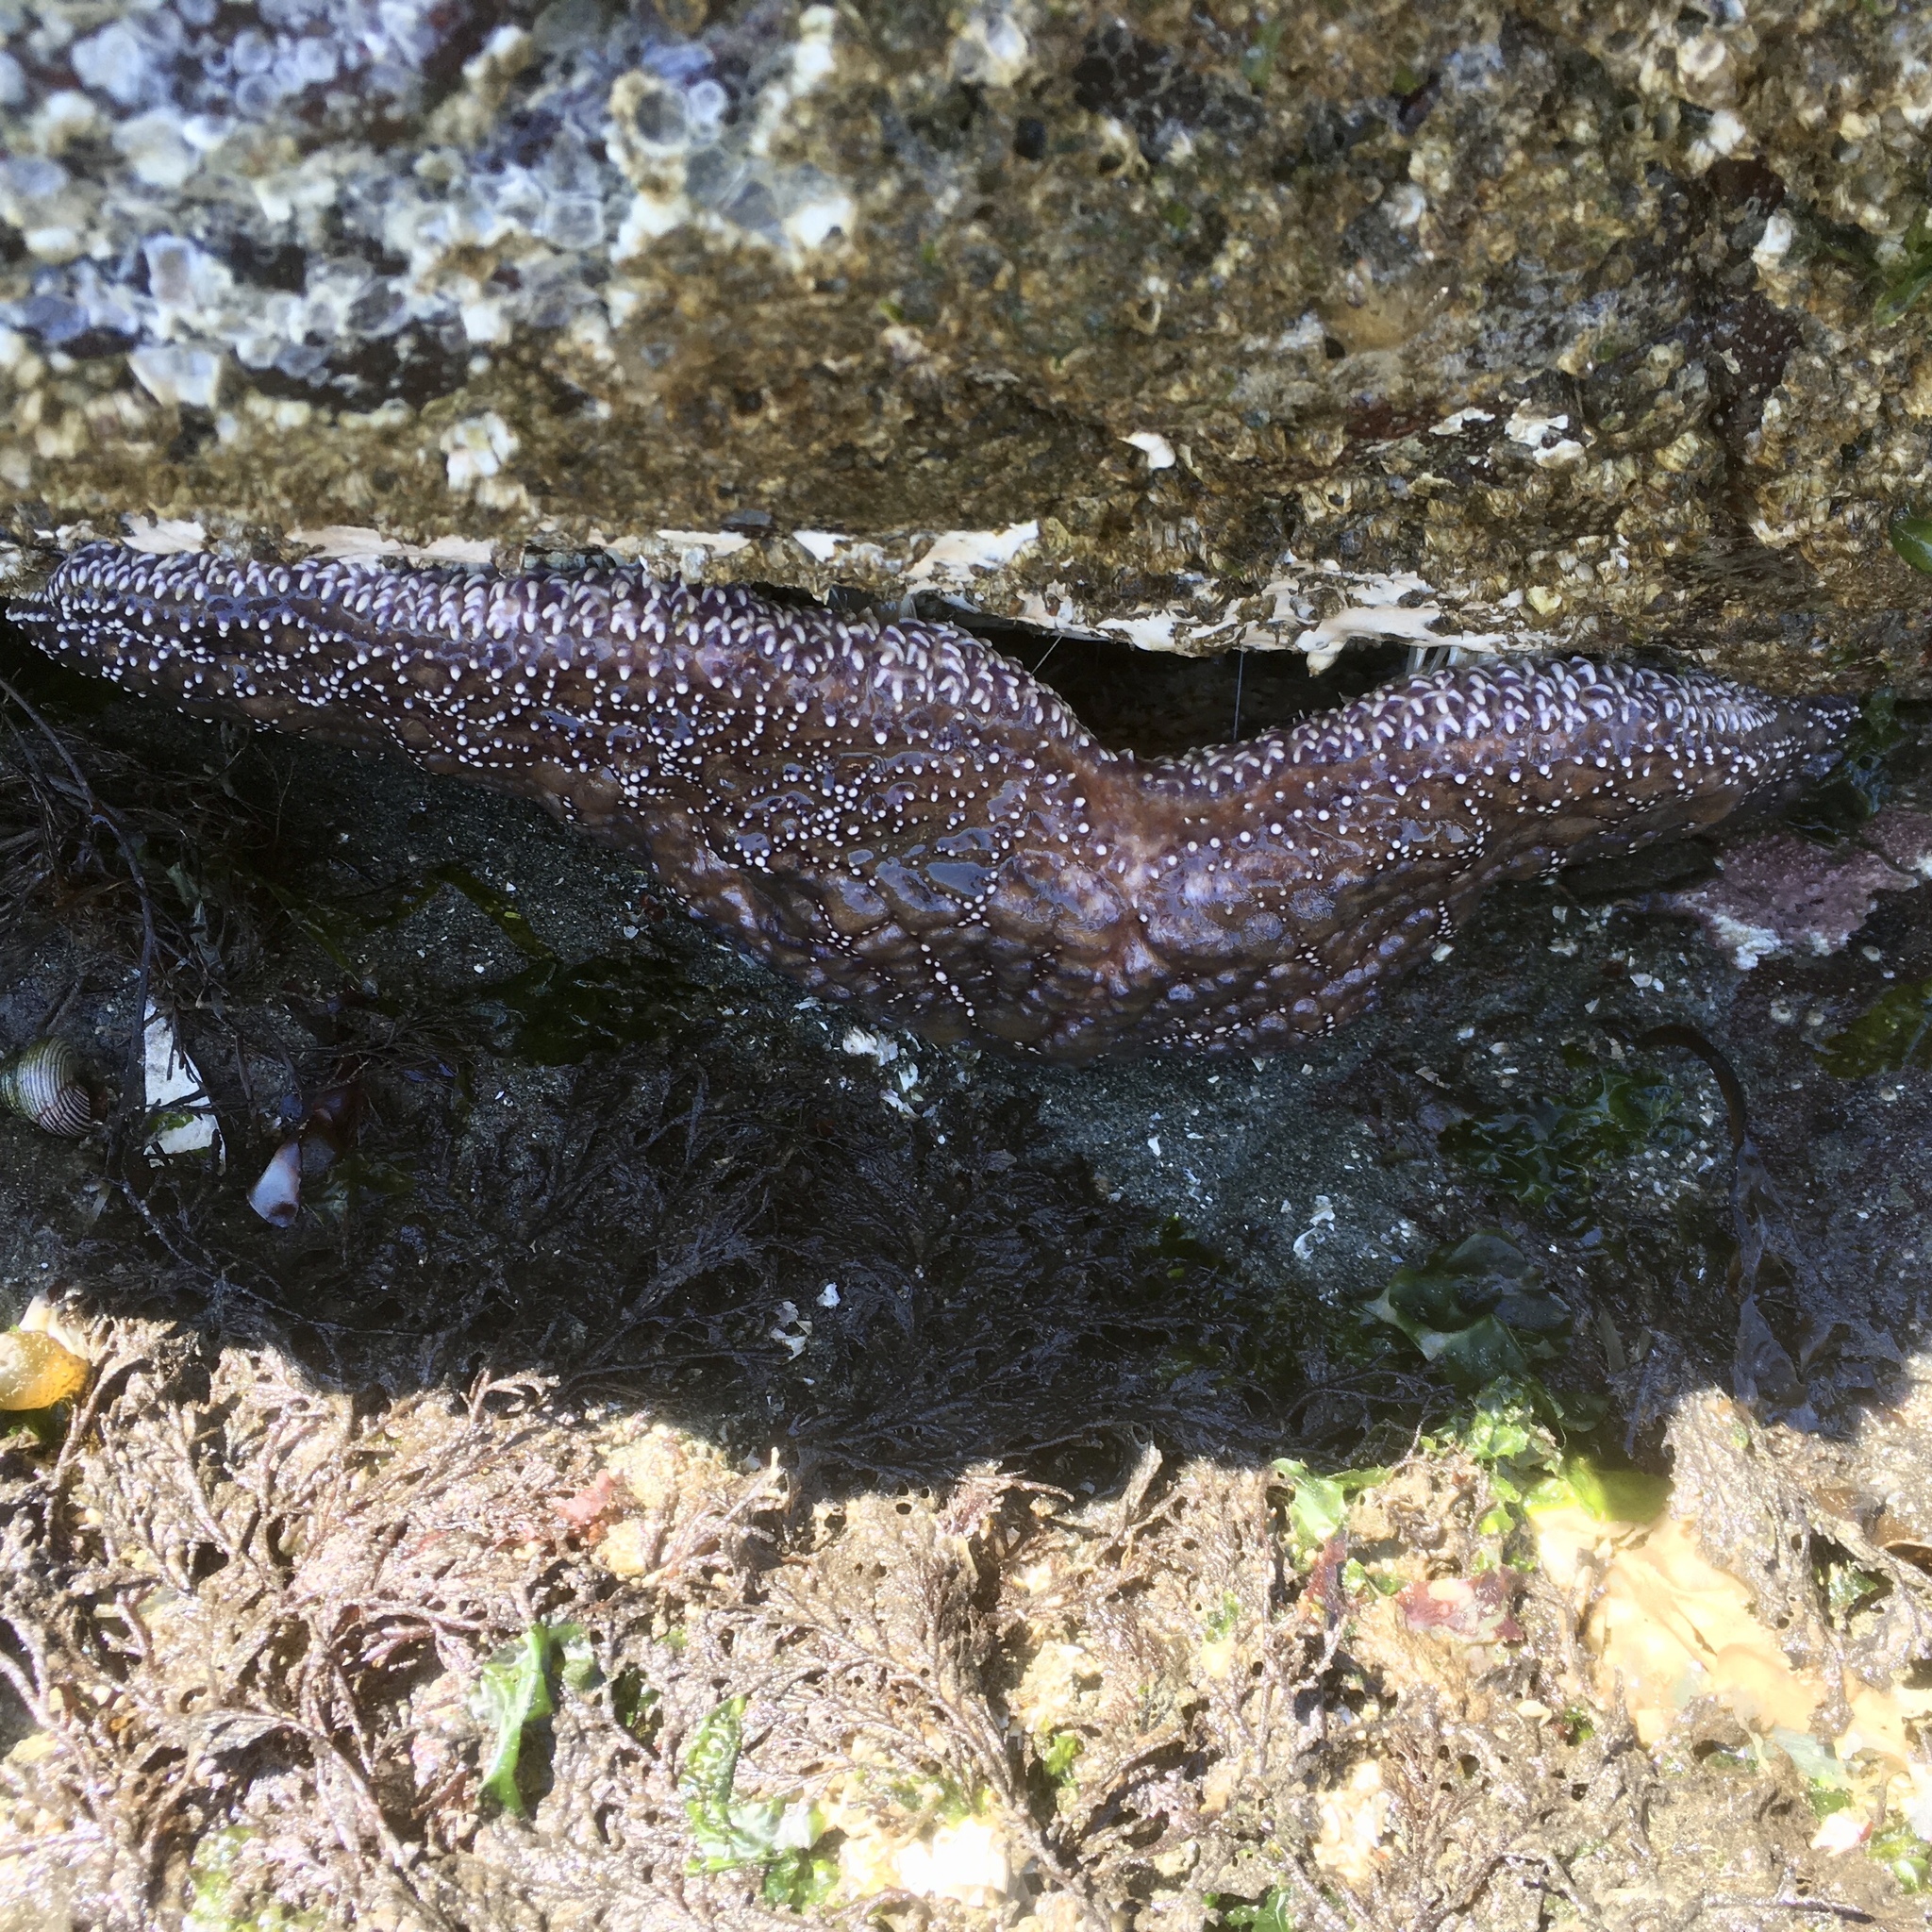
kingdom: Animalia
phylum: Echinodermata
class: Asteroidea
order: Forcipulatida
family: Asteriidae
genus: Pisaster
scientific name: Pisaster ochraceus
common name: Ochre stars
